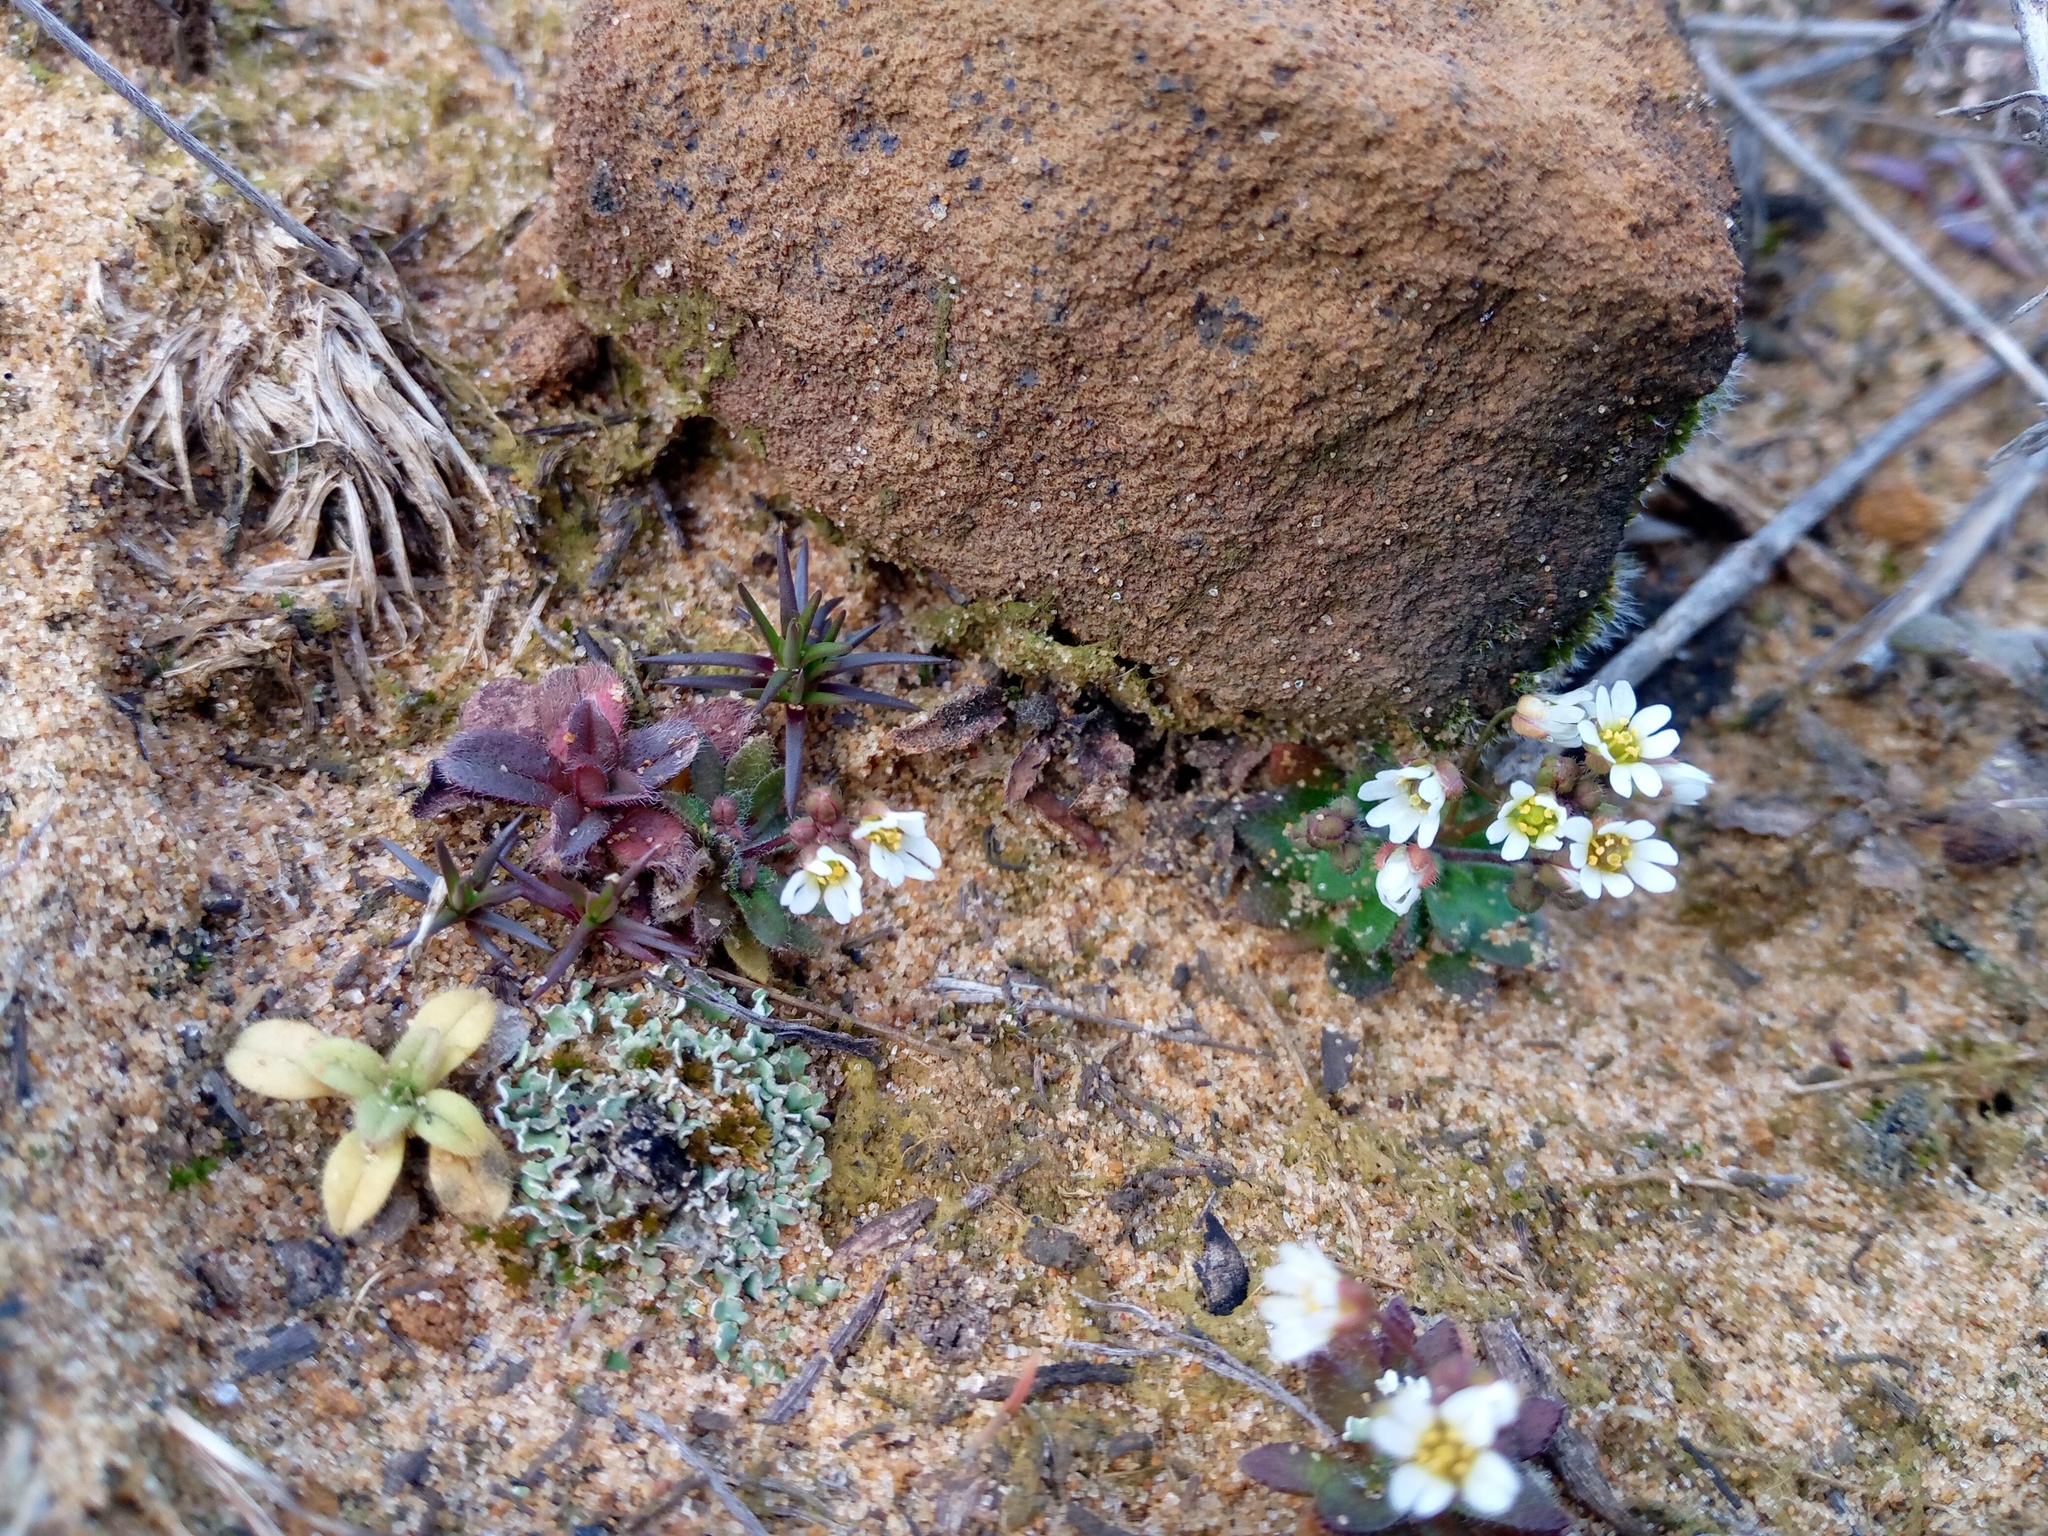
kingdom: Plantae
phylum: Tracheophyta
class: Magnoliopsida
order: Brassicales
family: Brassicaceae
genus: Draba
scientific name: Draba verna
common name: Spring draba
